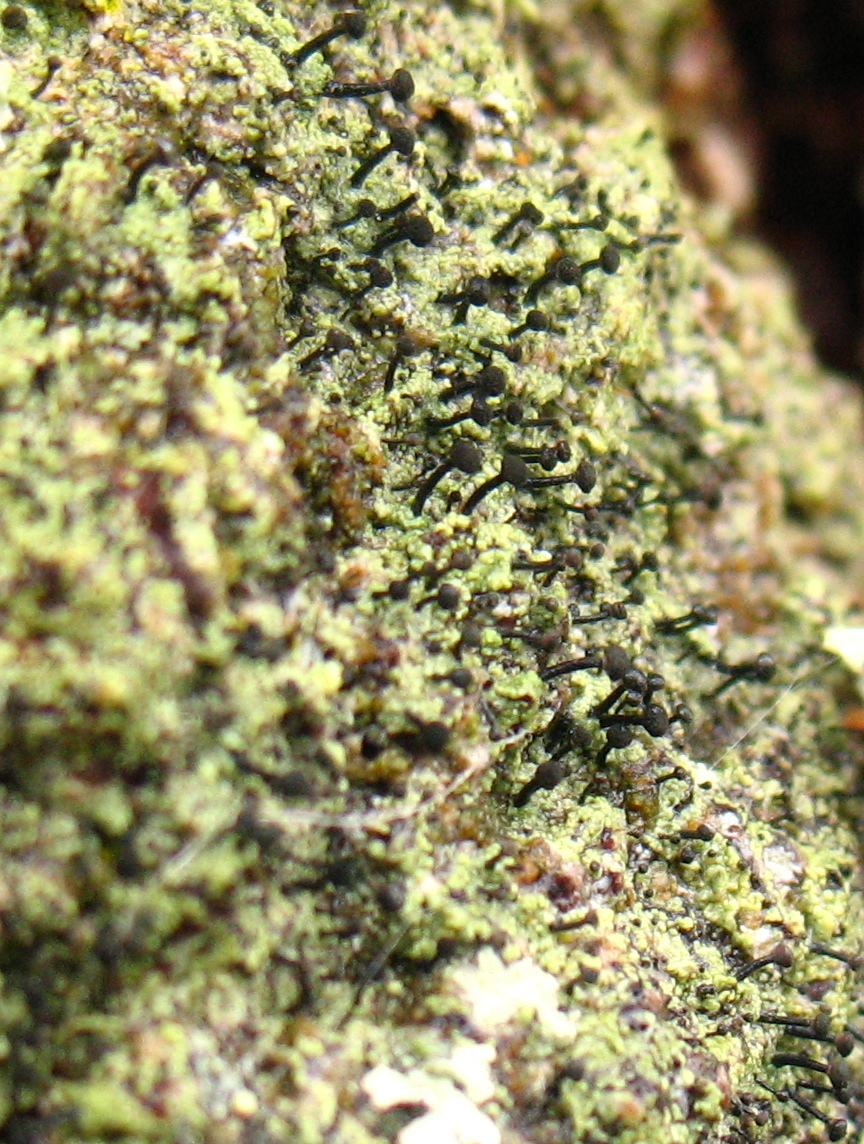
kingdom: Fungi
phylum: Ascomycota
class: Lecanoromycetes
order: Caliciales
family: Caliciaceae
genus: Calicium
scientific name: Calicium viride
